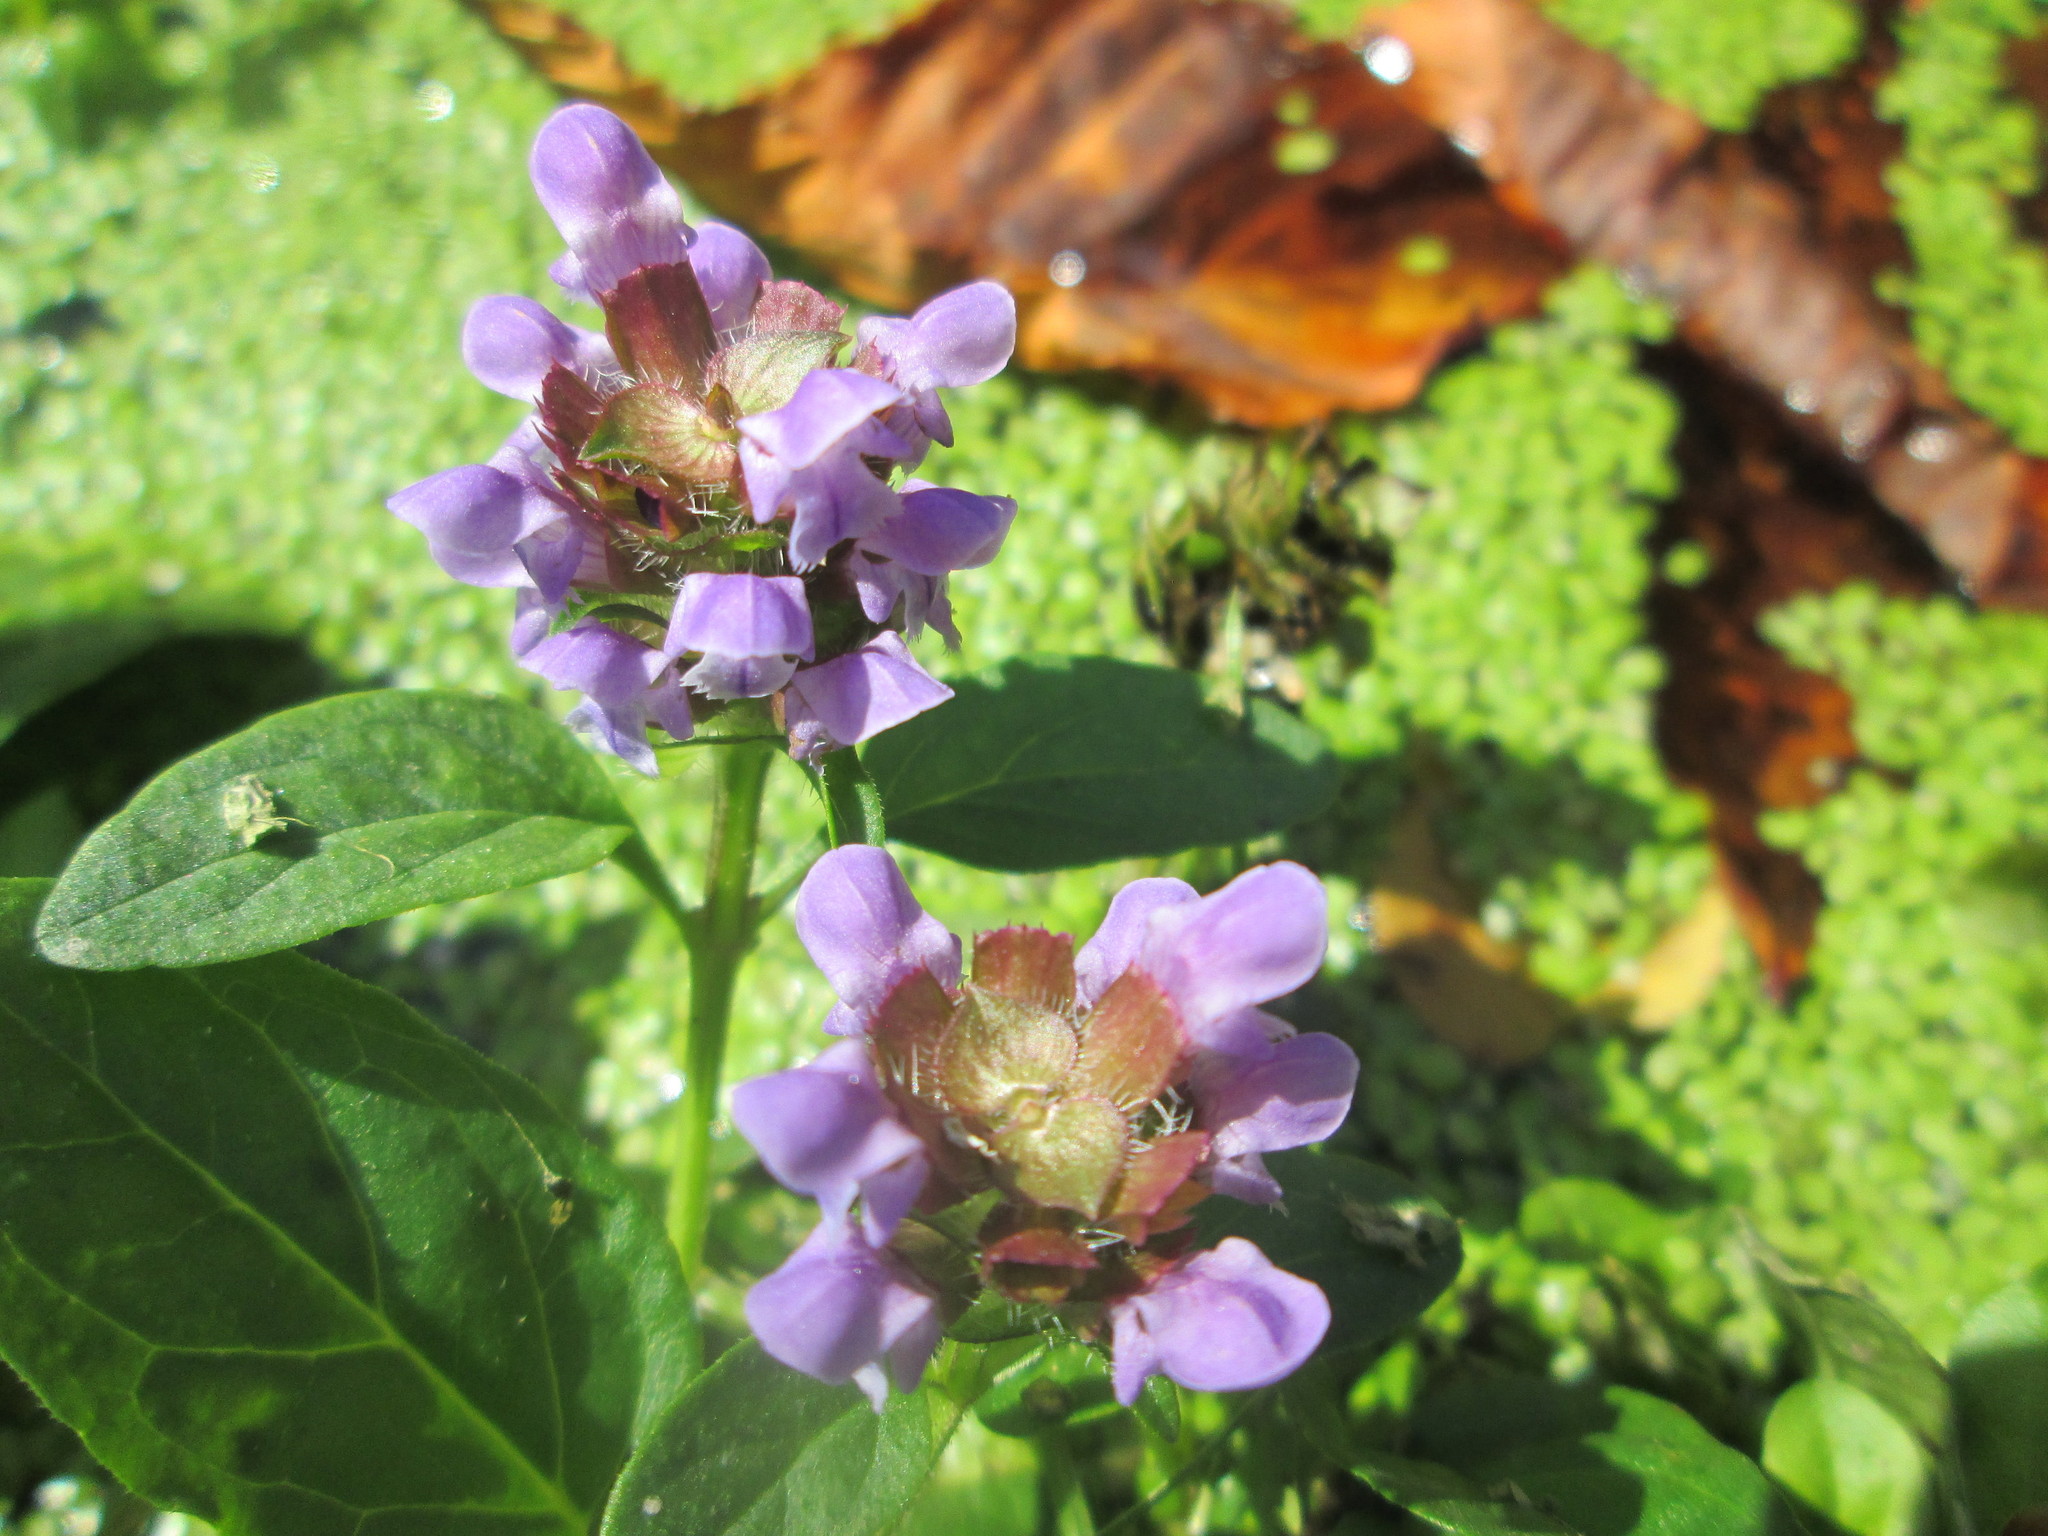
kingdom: Plantae
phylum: Tracheophyta
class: Magnoliopsida
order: Lamiales
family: Lamiaceae
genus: Prunella
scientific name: Prunella vulgaris
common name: Heal-all
